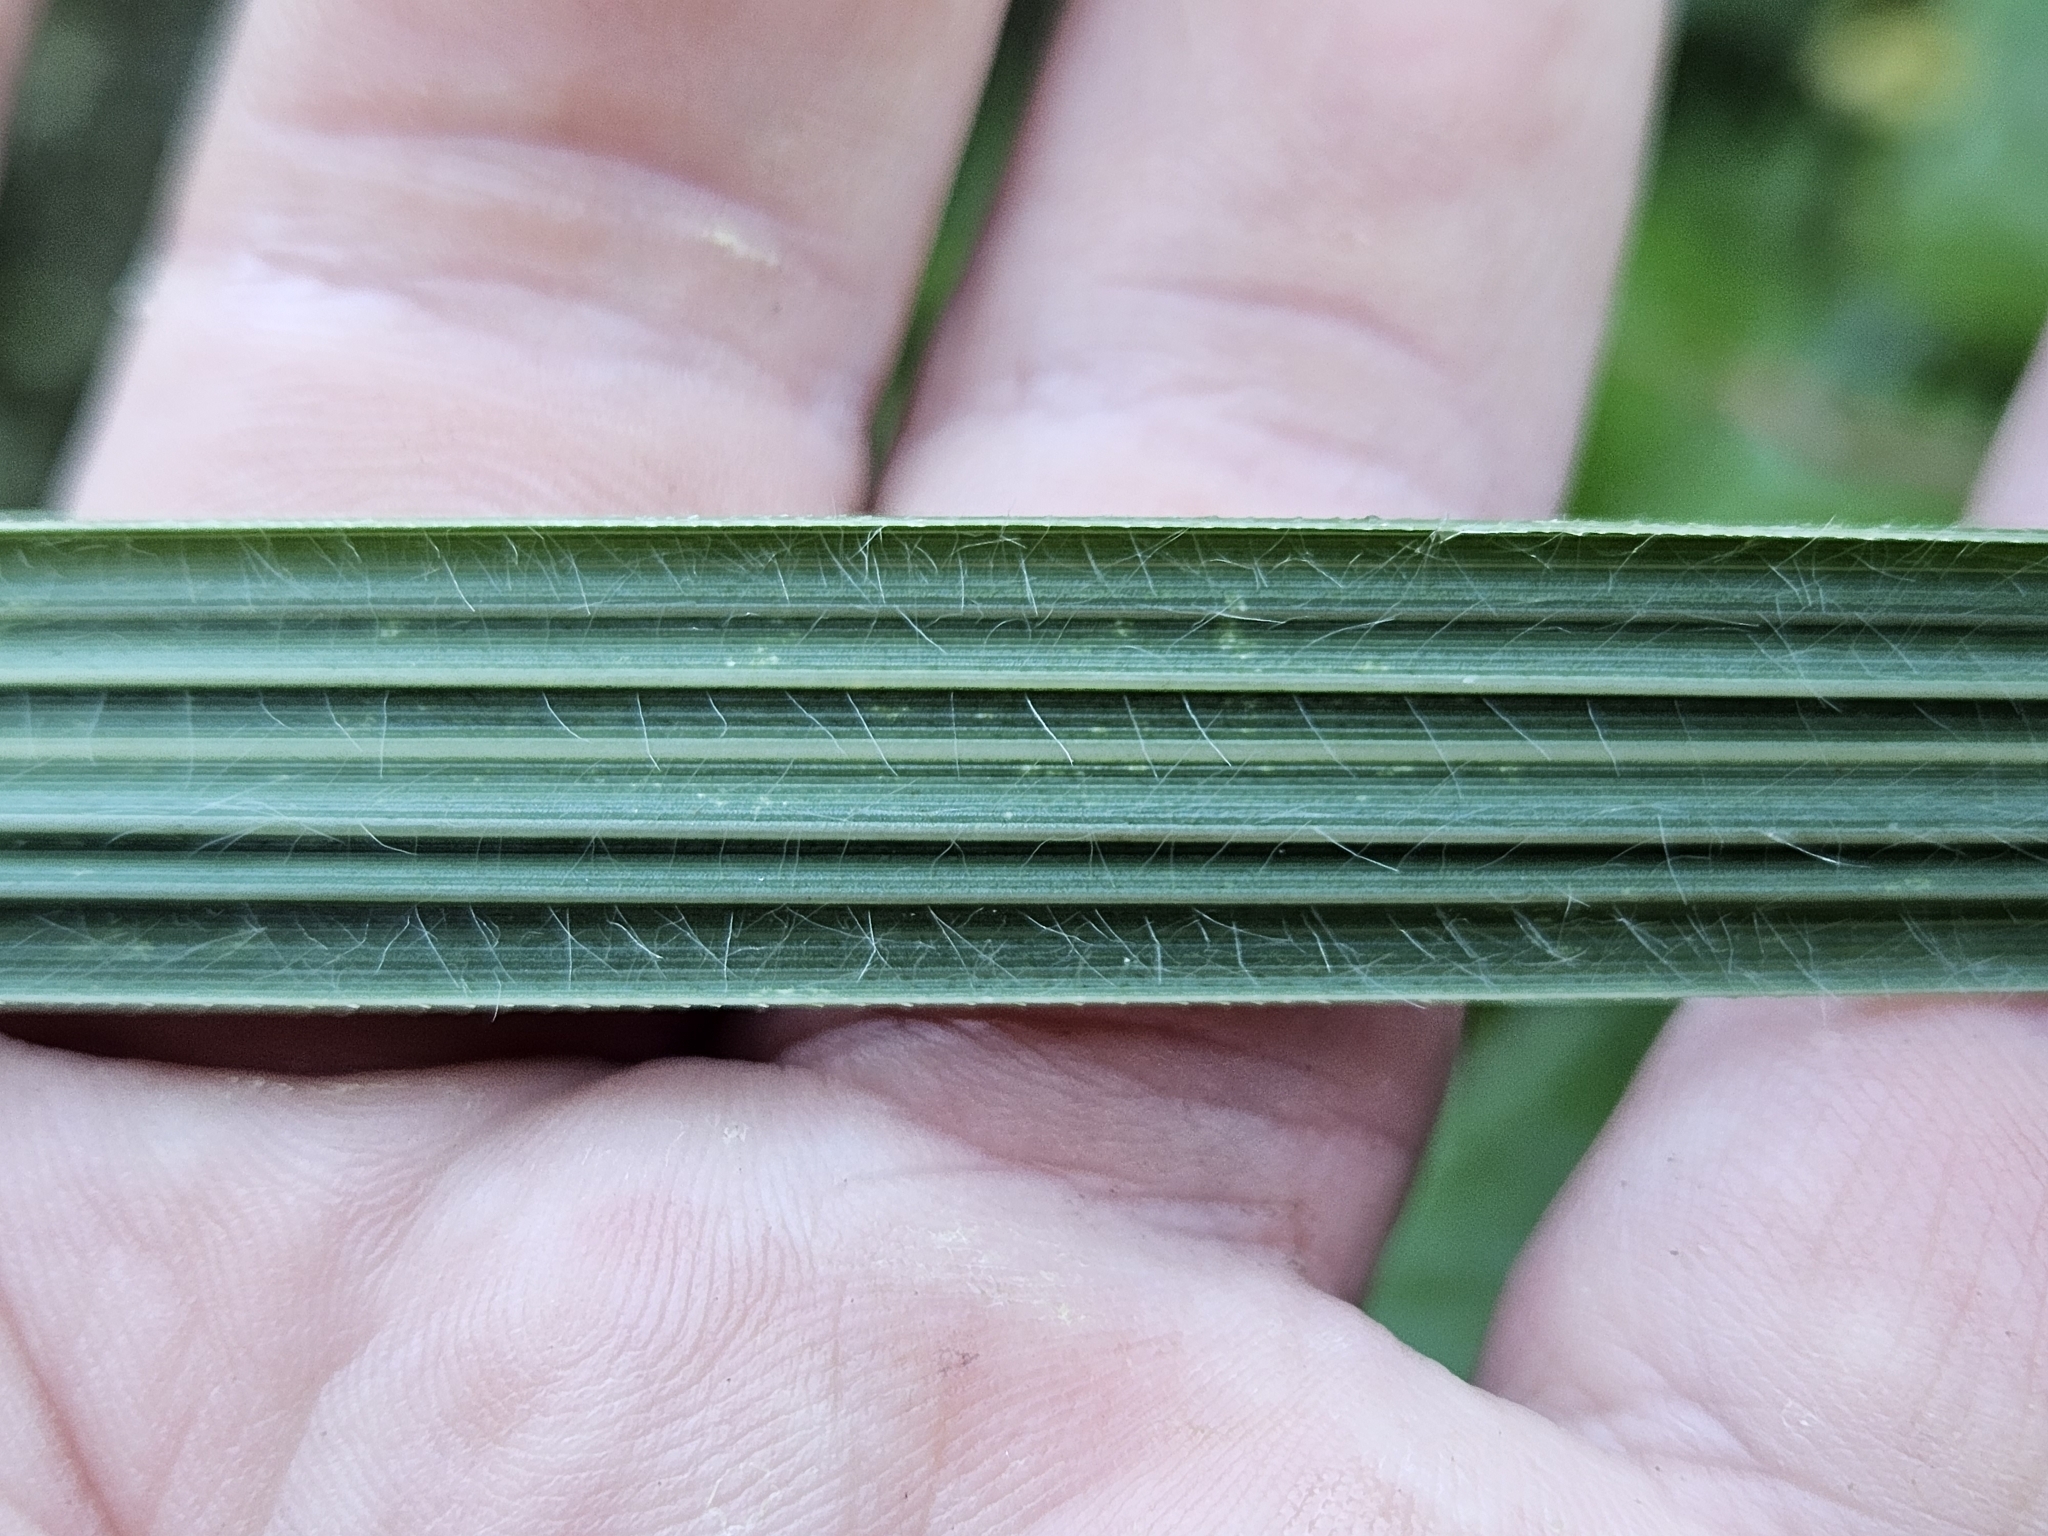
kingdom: Plantae
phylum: Tracheophyta
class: Liliopsida
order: Poales
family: Poaceae
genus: Austroderia
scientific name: Austroderia fulvida
